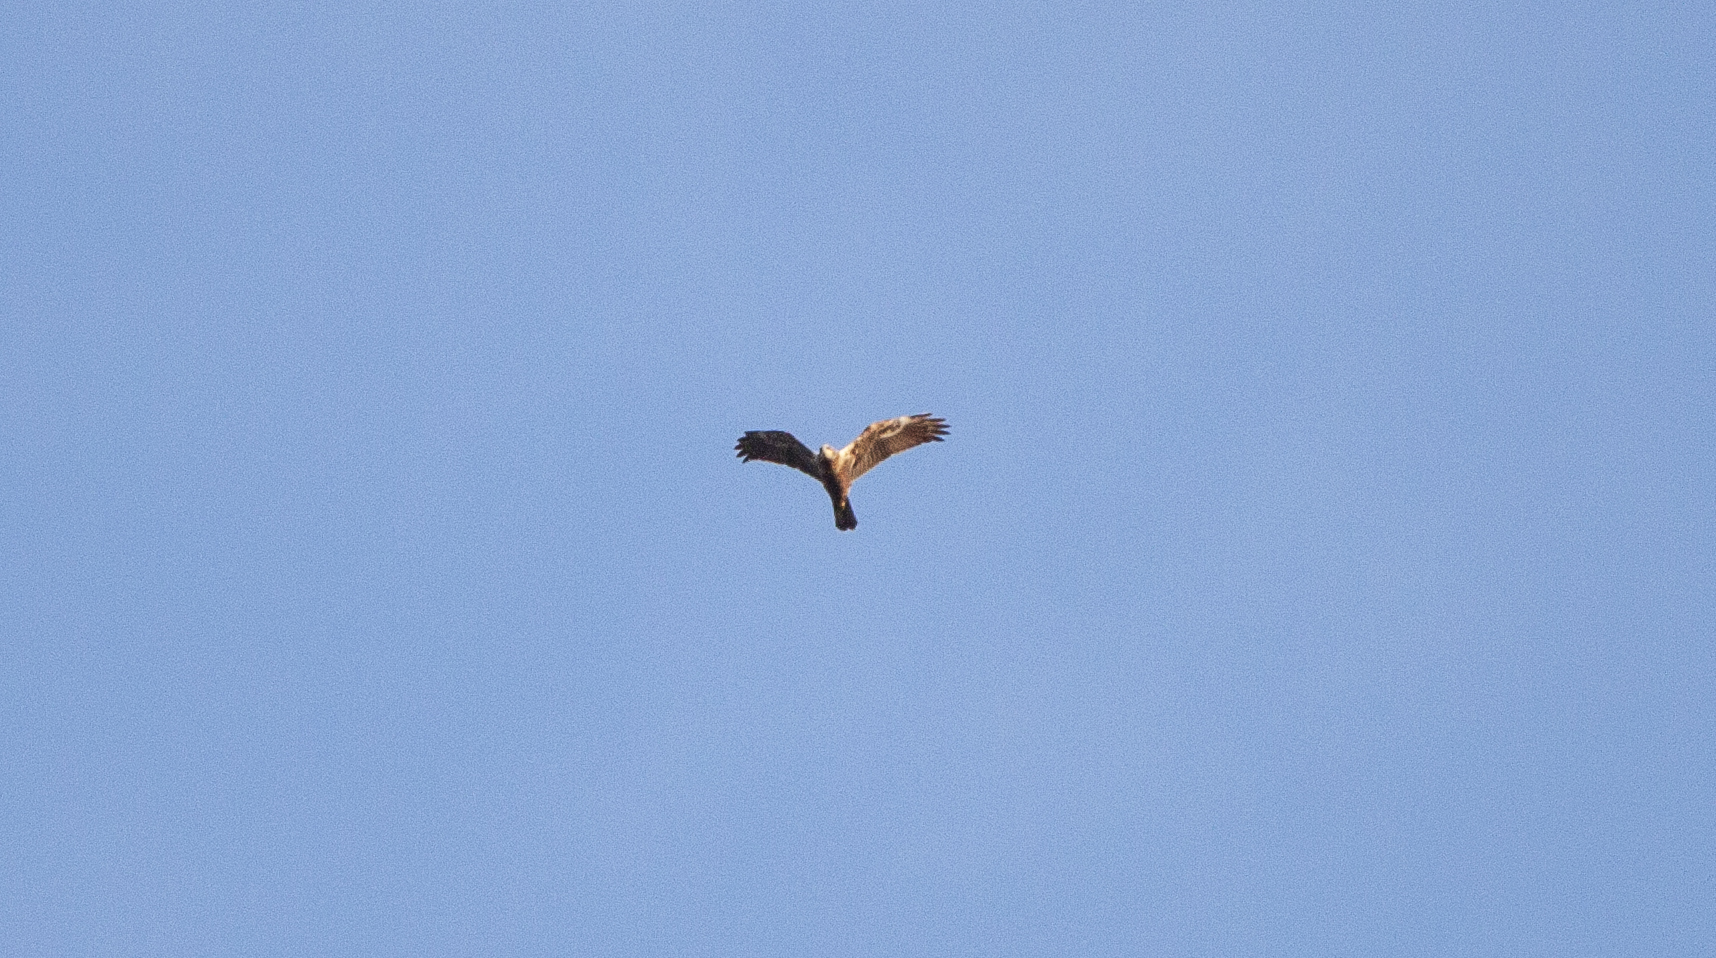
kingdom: Animalia
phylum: Chordata
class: Aves
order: Accipitriformes
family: Accipitridae
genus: Circus
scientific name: Circus aeruginosus
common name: Western marsh harrier
